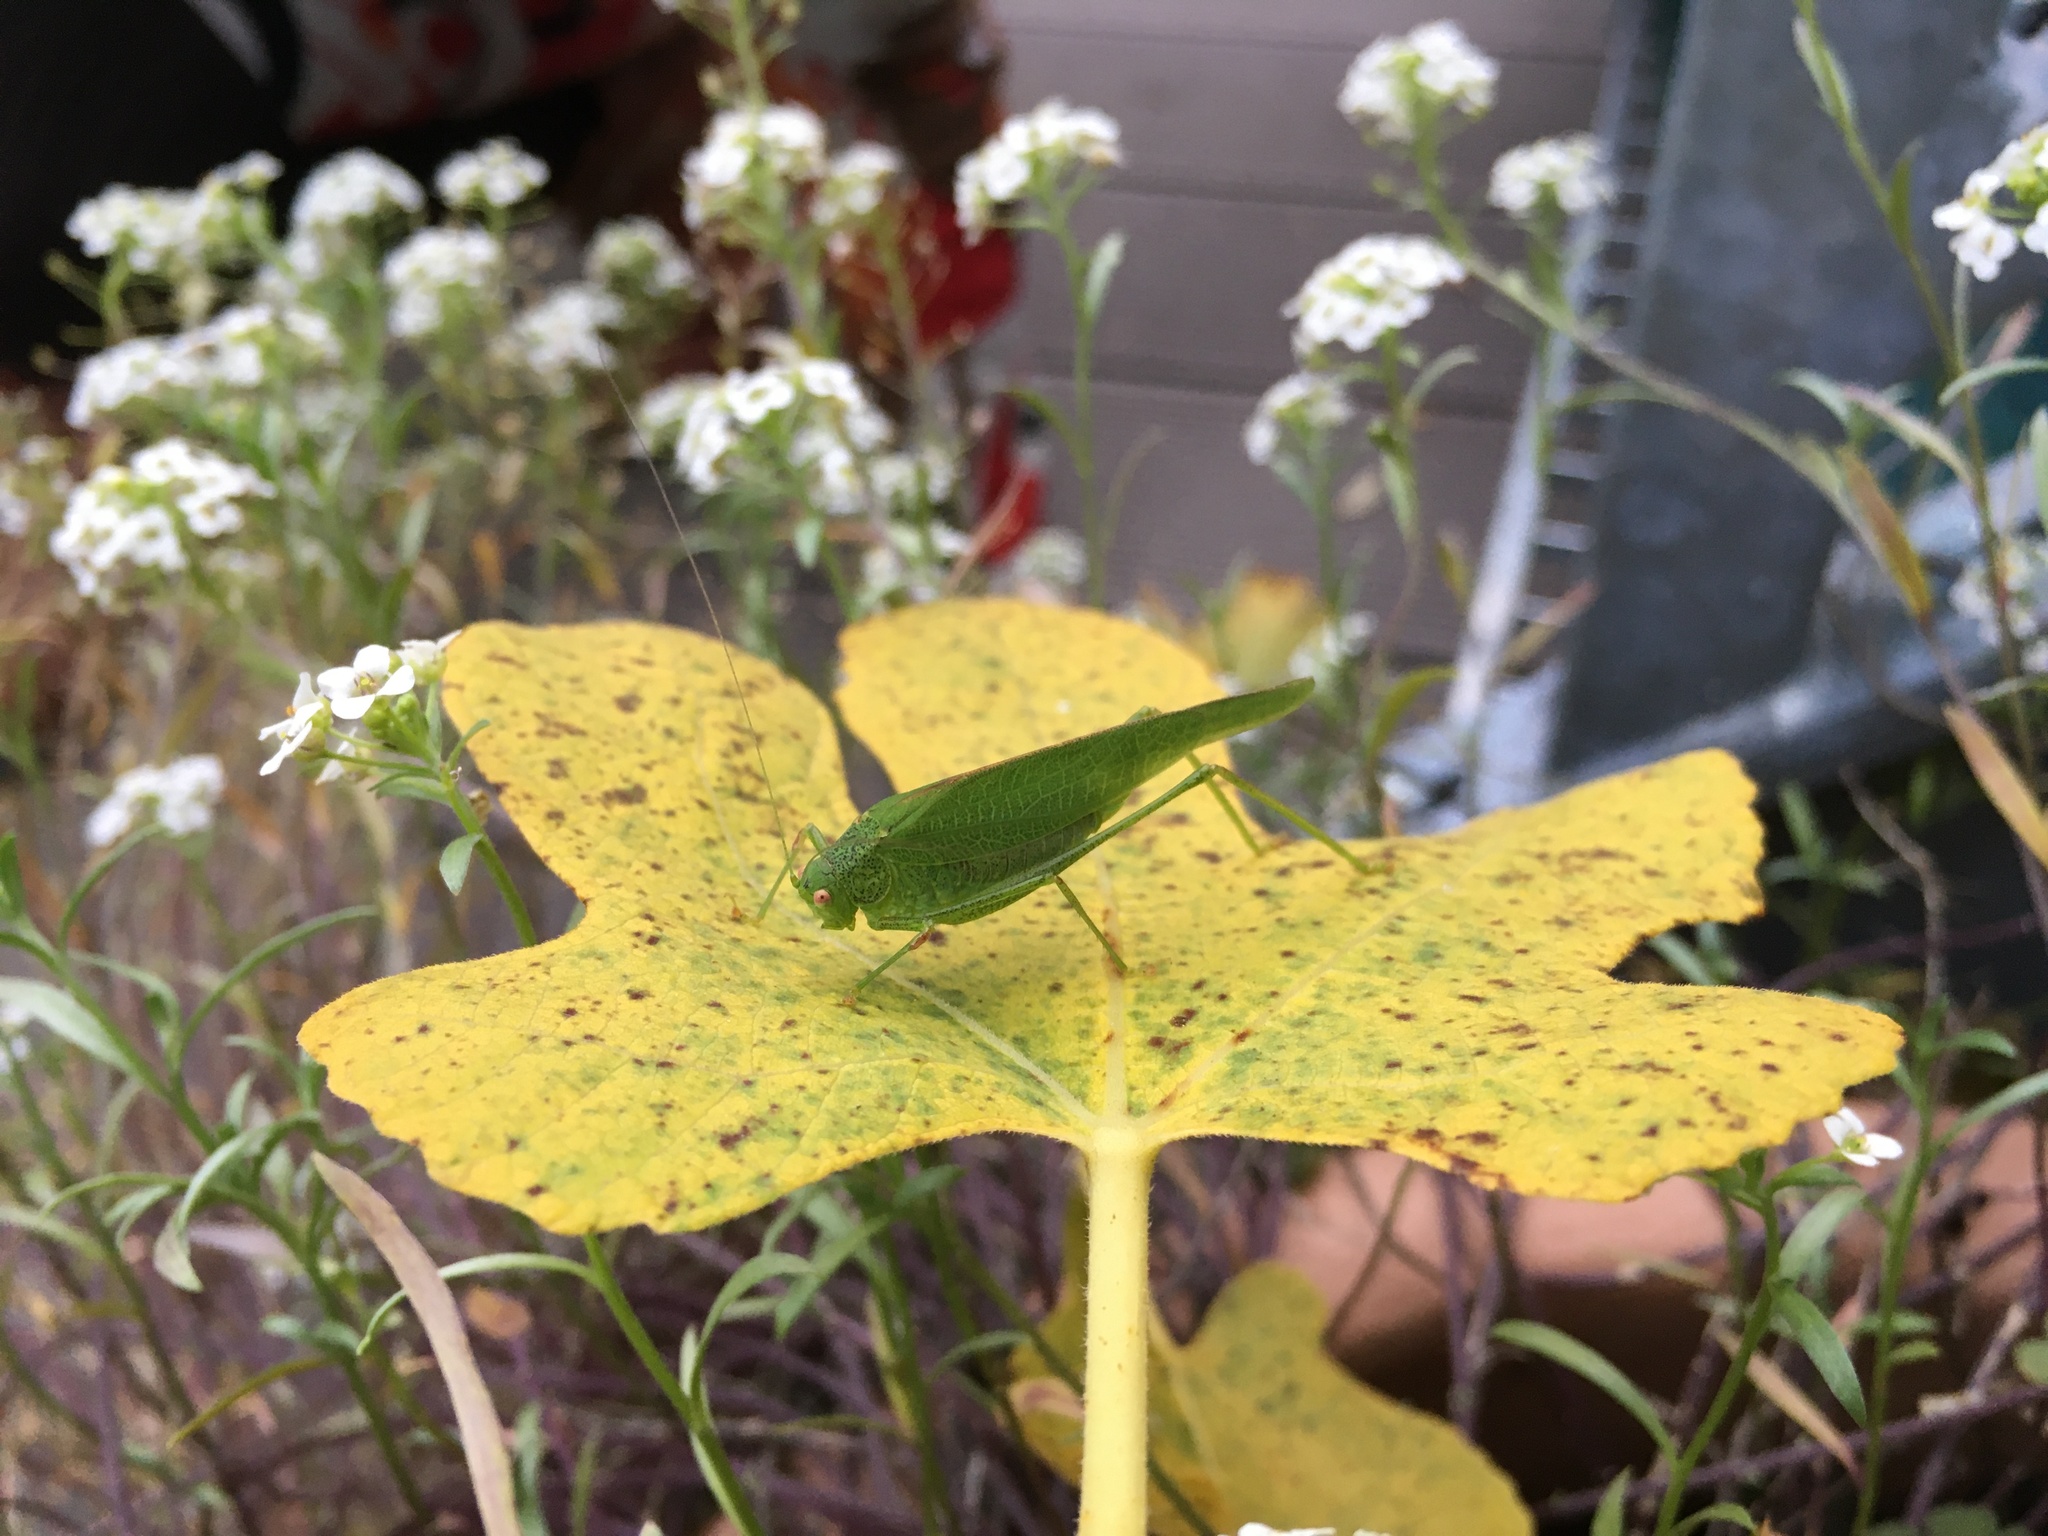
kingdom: Animalia
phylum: Arthropoda
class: Insecta
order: Orthoptera
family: Tettigoniidae
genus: Phaneroptera
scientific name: Phaneroptera nana
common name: Southern sickle bush-cricket
